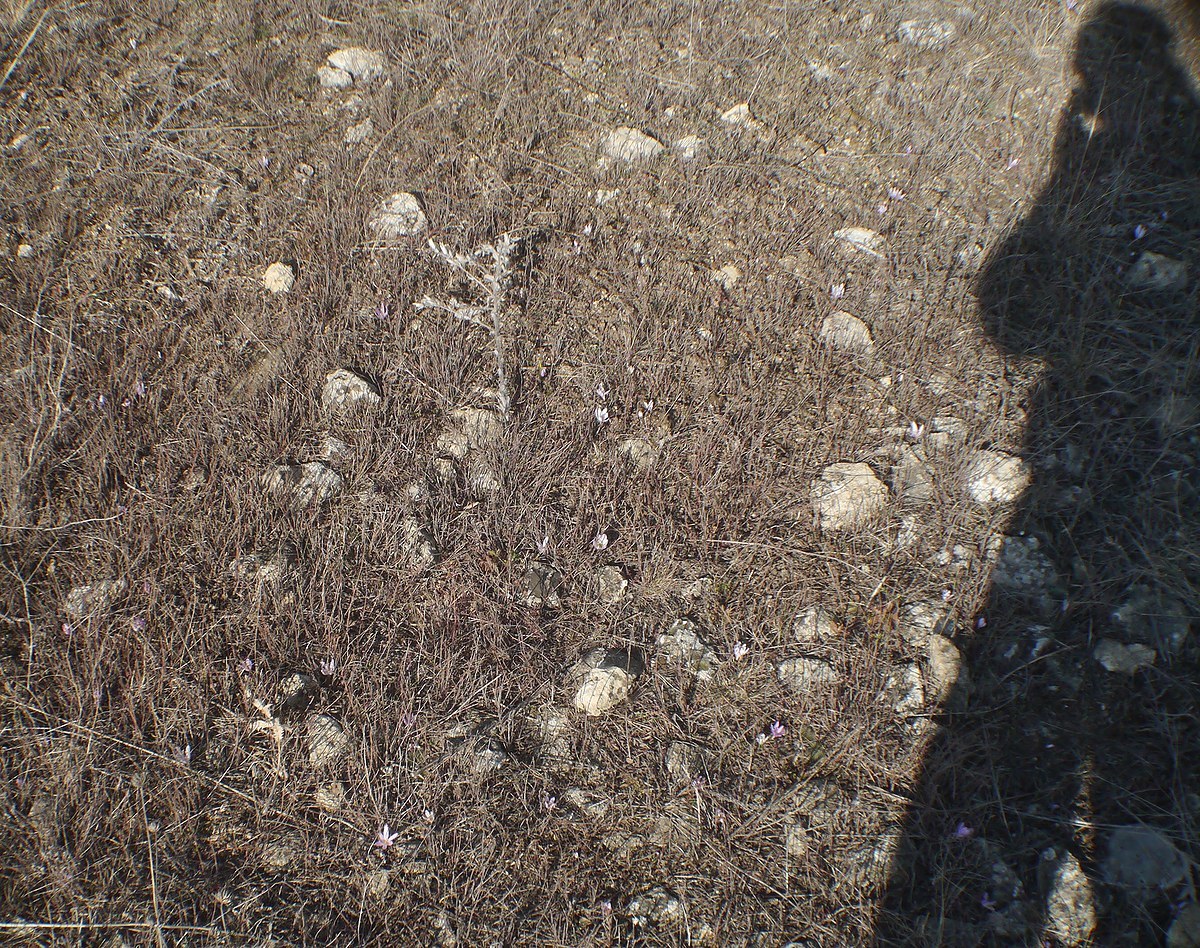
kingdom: Plantae
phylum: Tracheophyta
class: Liliopsida
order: Liliales
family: Colchicaceae
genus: Colchicum
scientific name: Colchicum bulbocodium
